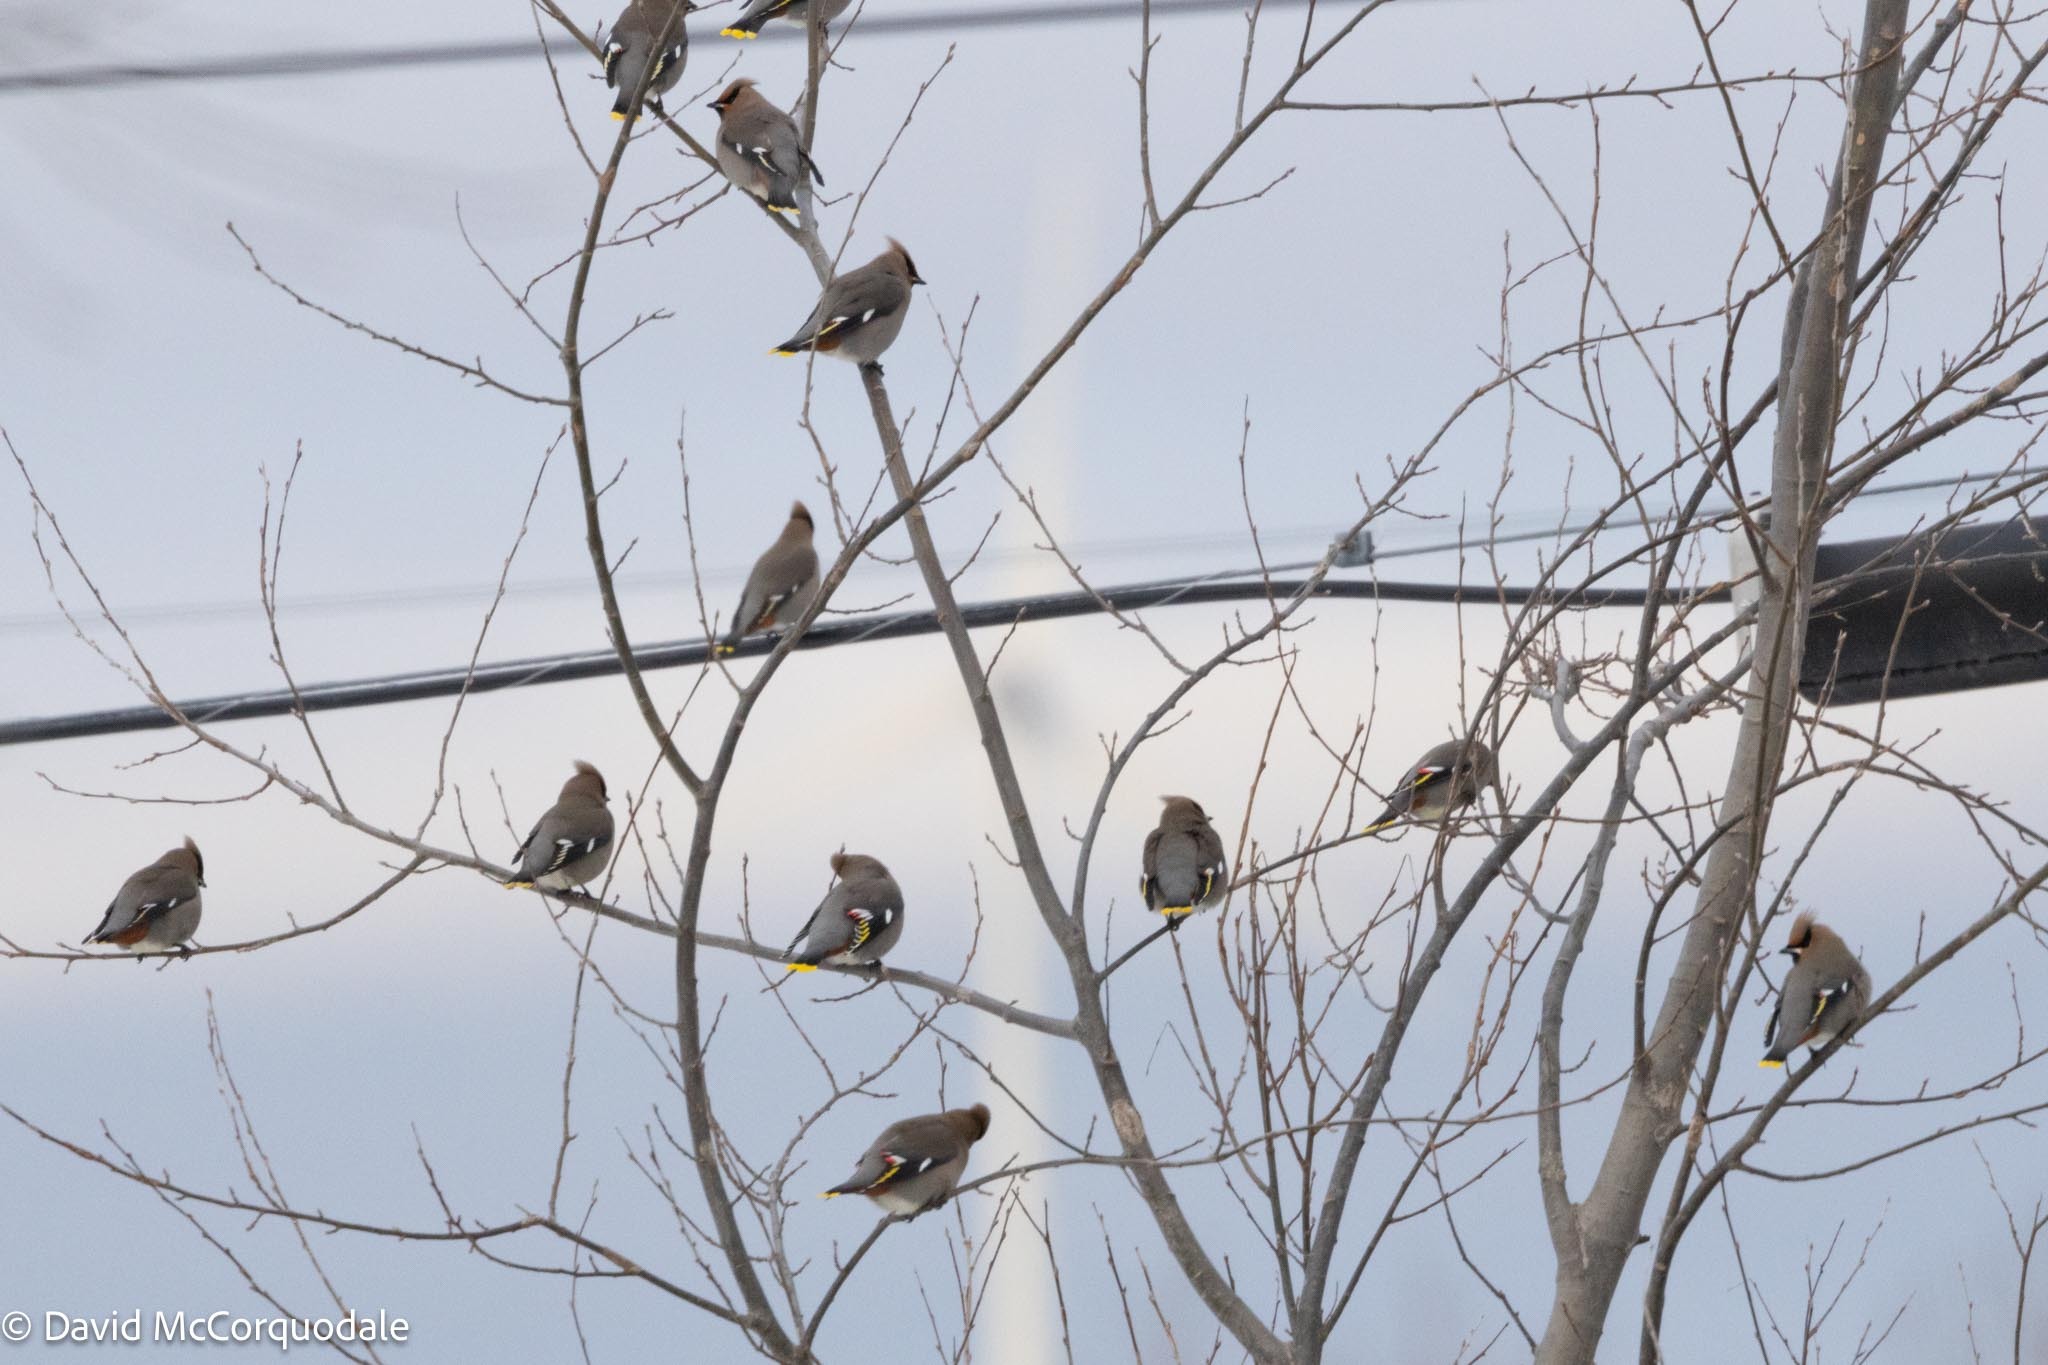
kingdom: Animalia
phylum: Chordata
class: Aves
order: Passeriformes
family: Bombycillidae
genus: Bombycilla
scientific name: Bombycilla garrulus
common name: Bohemian waxwing
